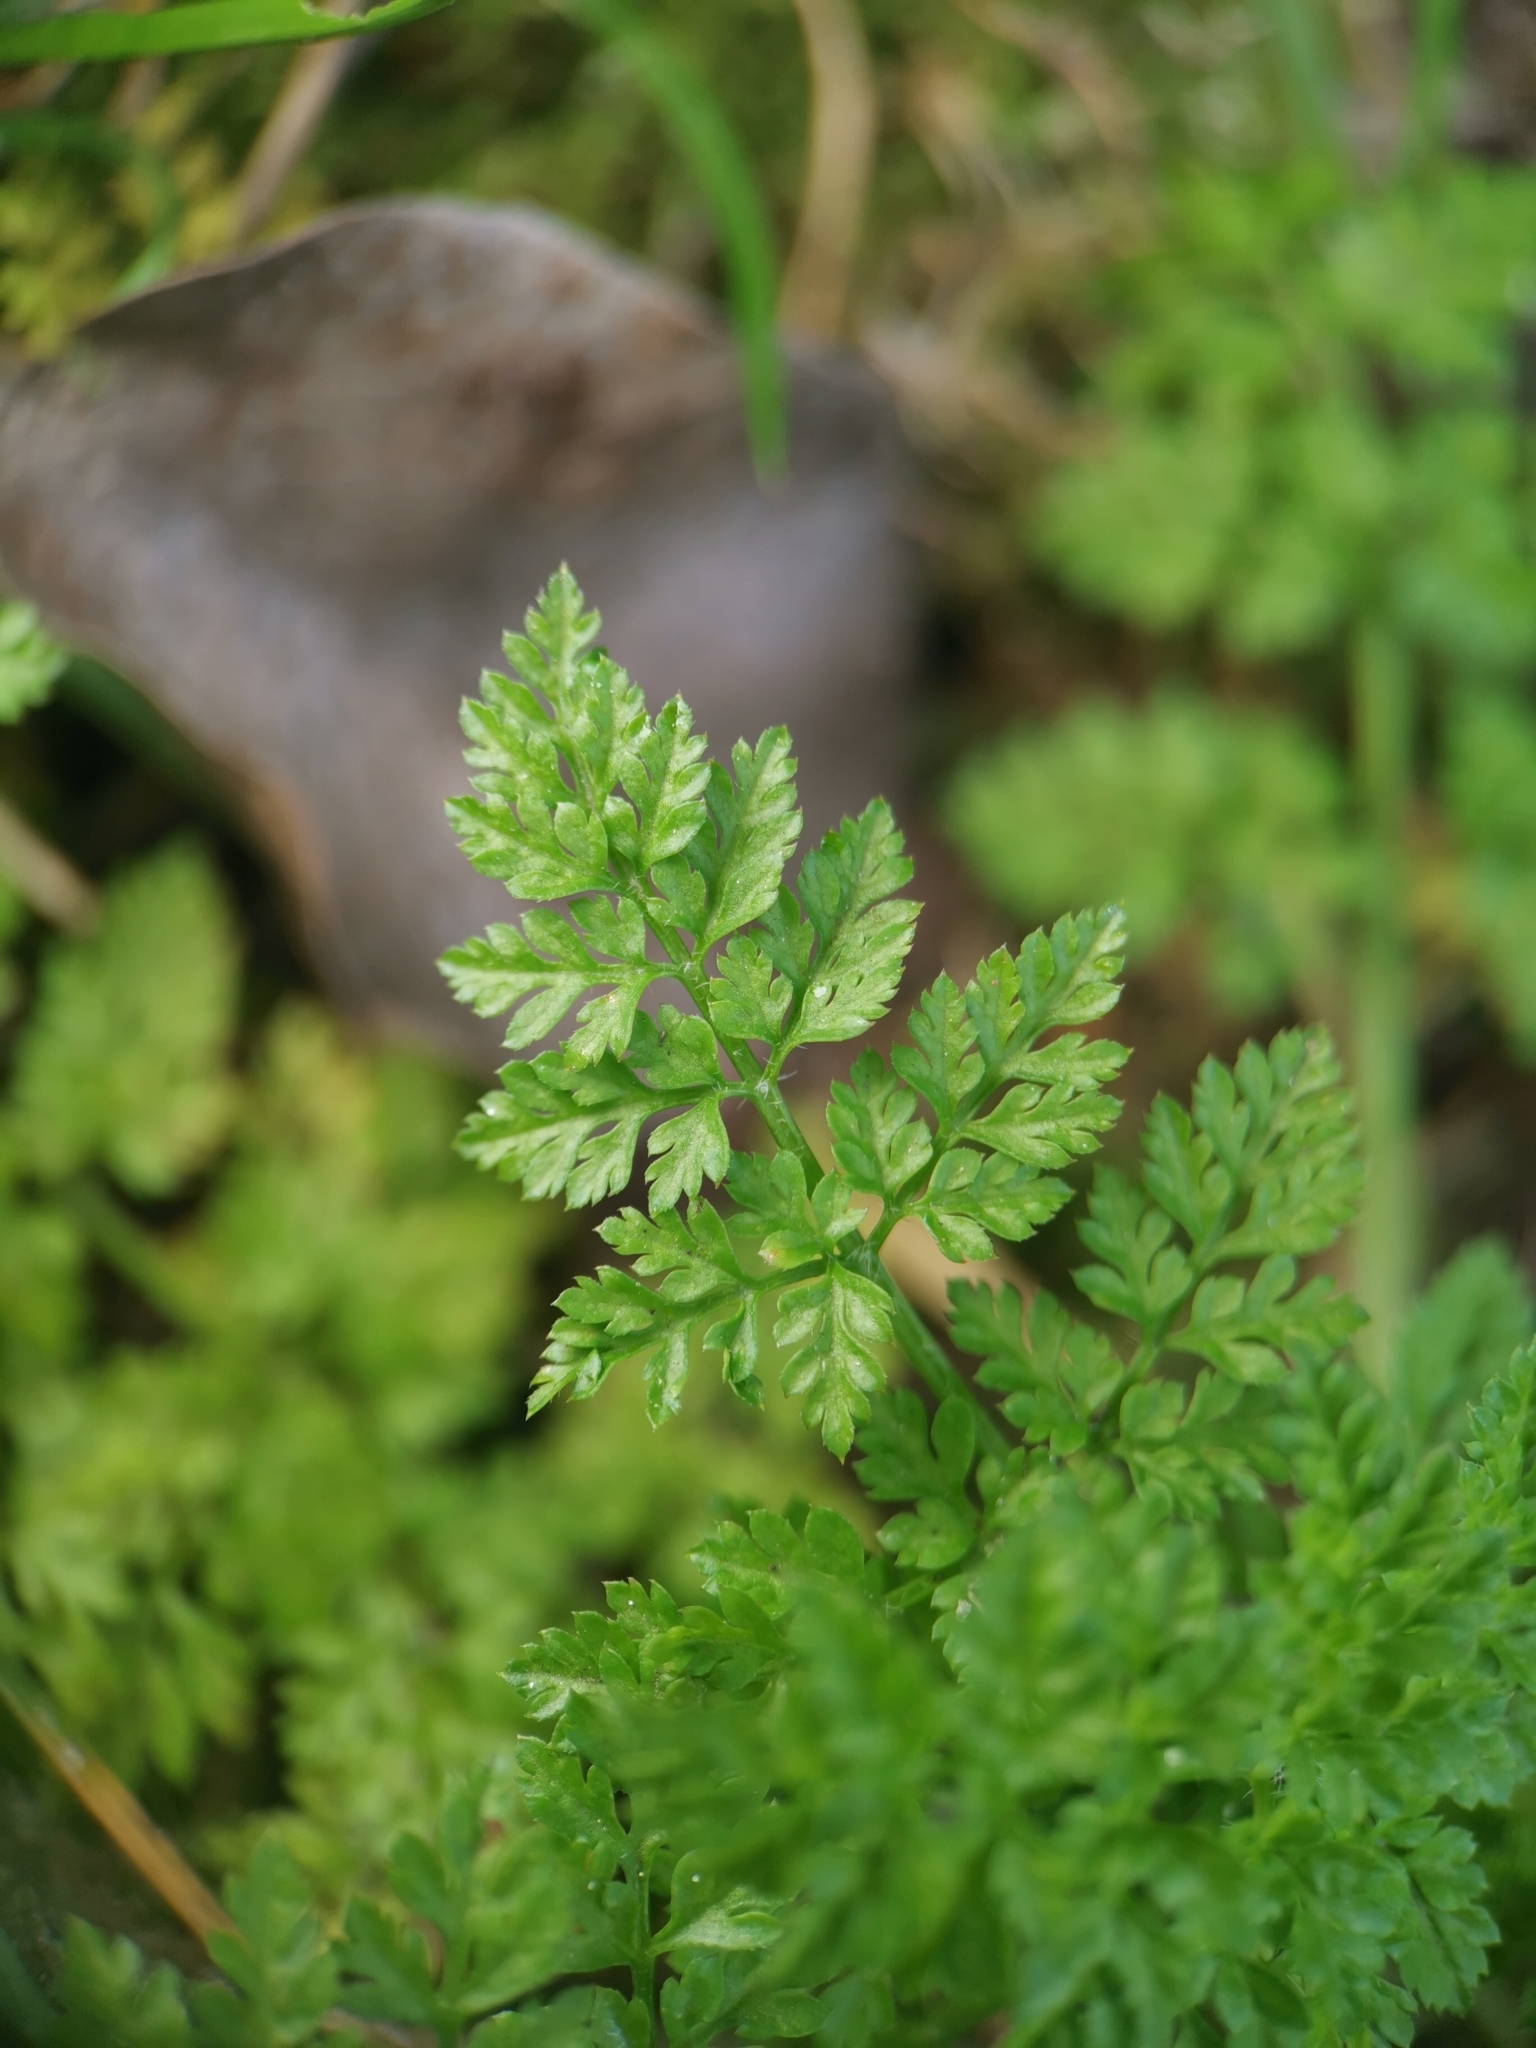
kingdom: Plantae
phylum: Tracheophyta
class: Magnoliopsida
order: Apiales
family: Apiaceae
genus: Anthriscus
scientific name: Anthriscus caucalis
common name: Bur chervil
